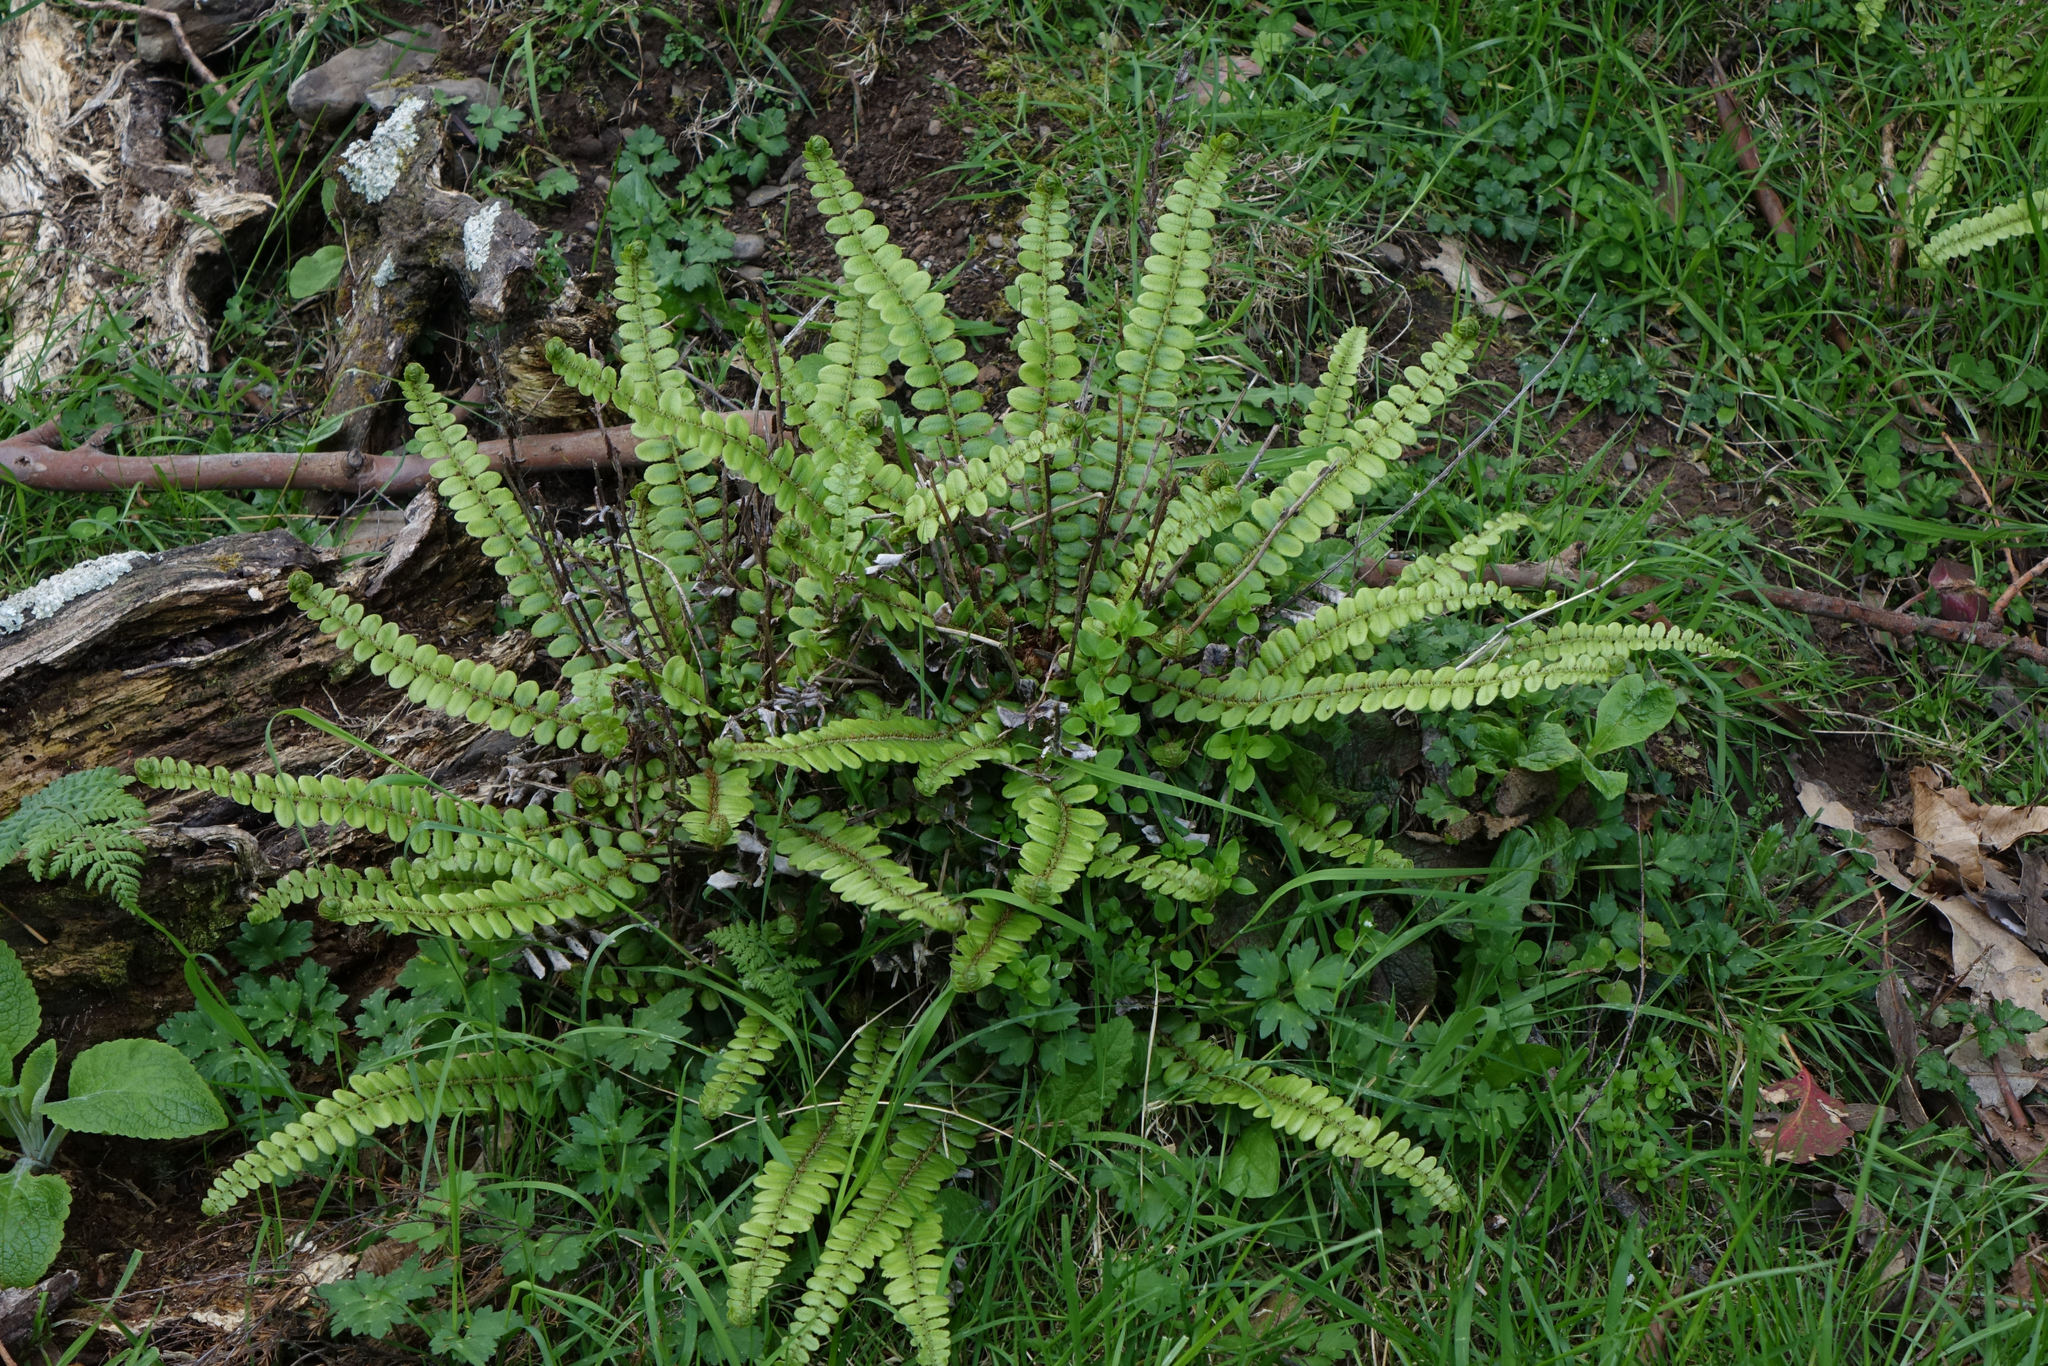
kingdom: Plantae
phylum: Tracheophyta
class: Polypodiopsida
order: Polypodiales
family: Blechnaceae
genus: Cranfillia
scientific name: Cranfillia fluviatilis
